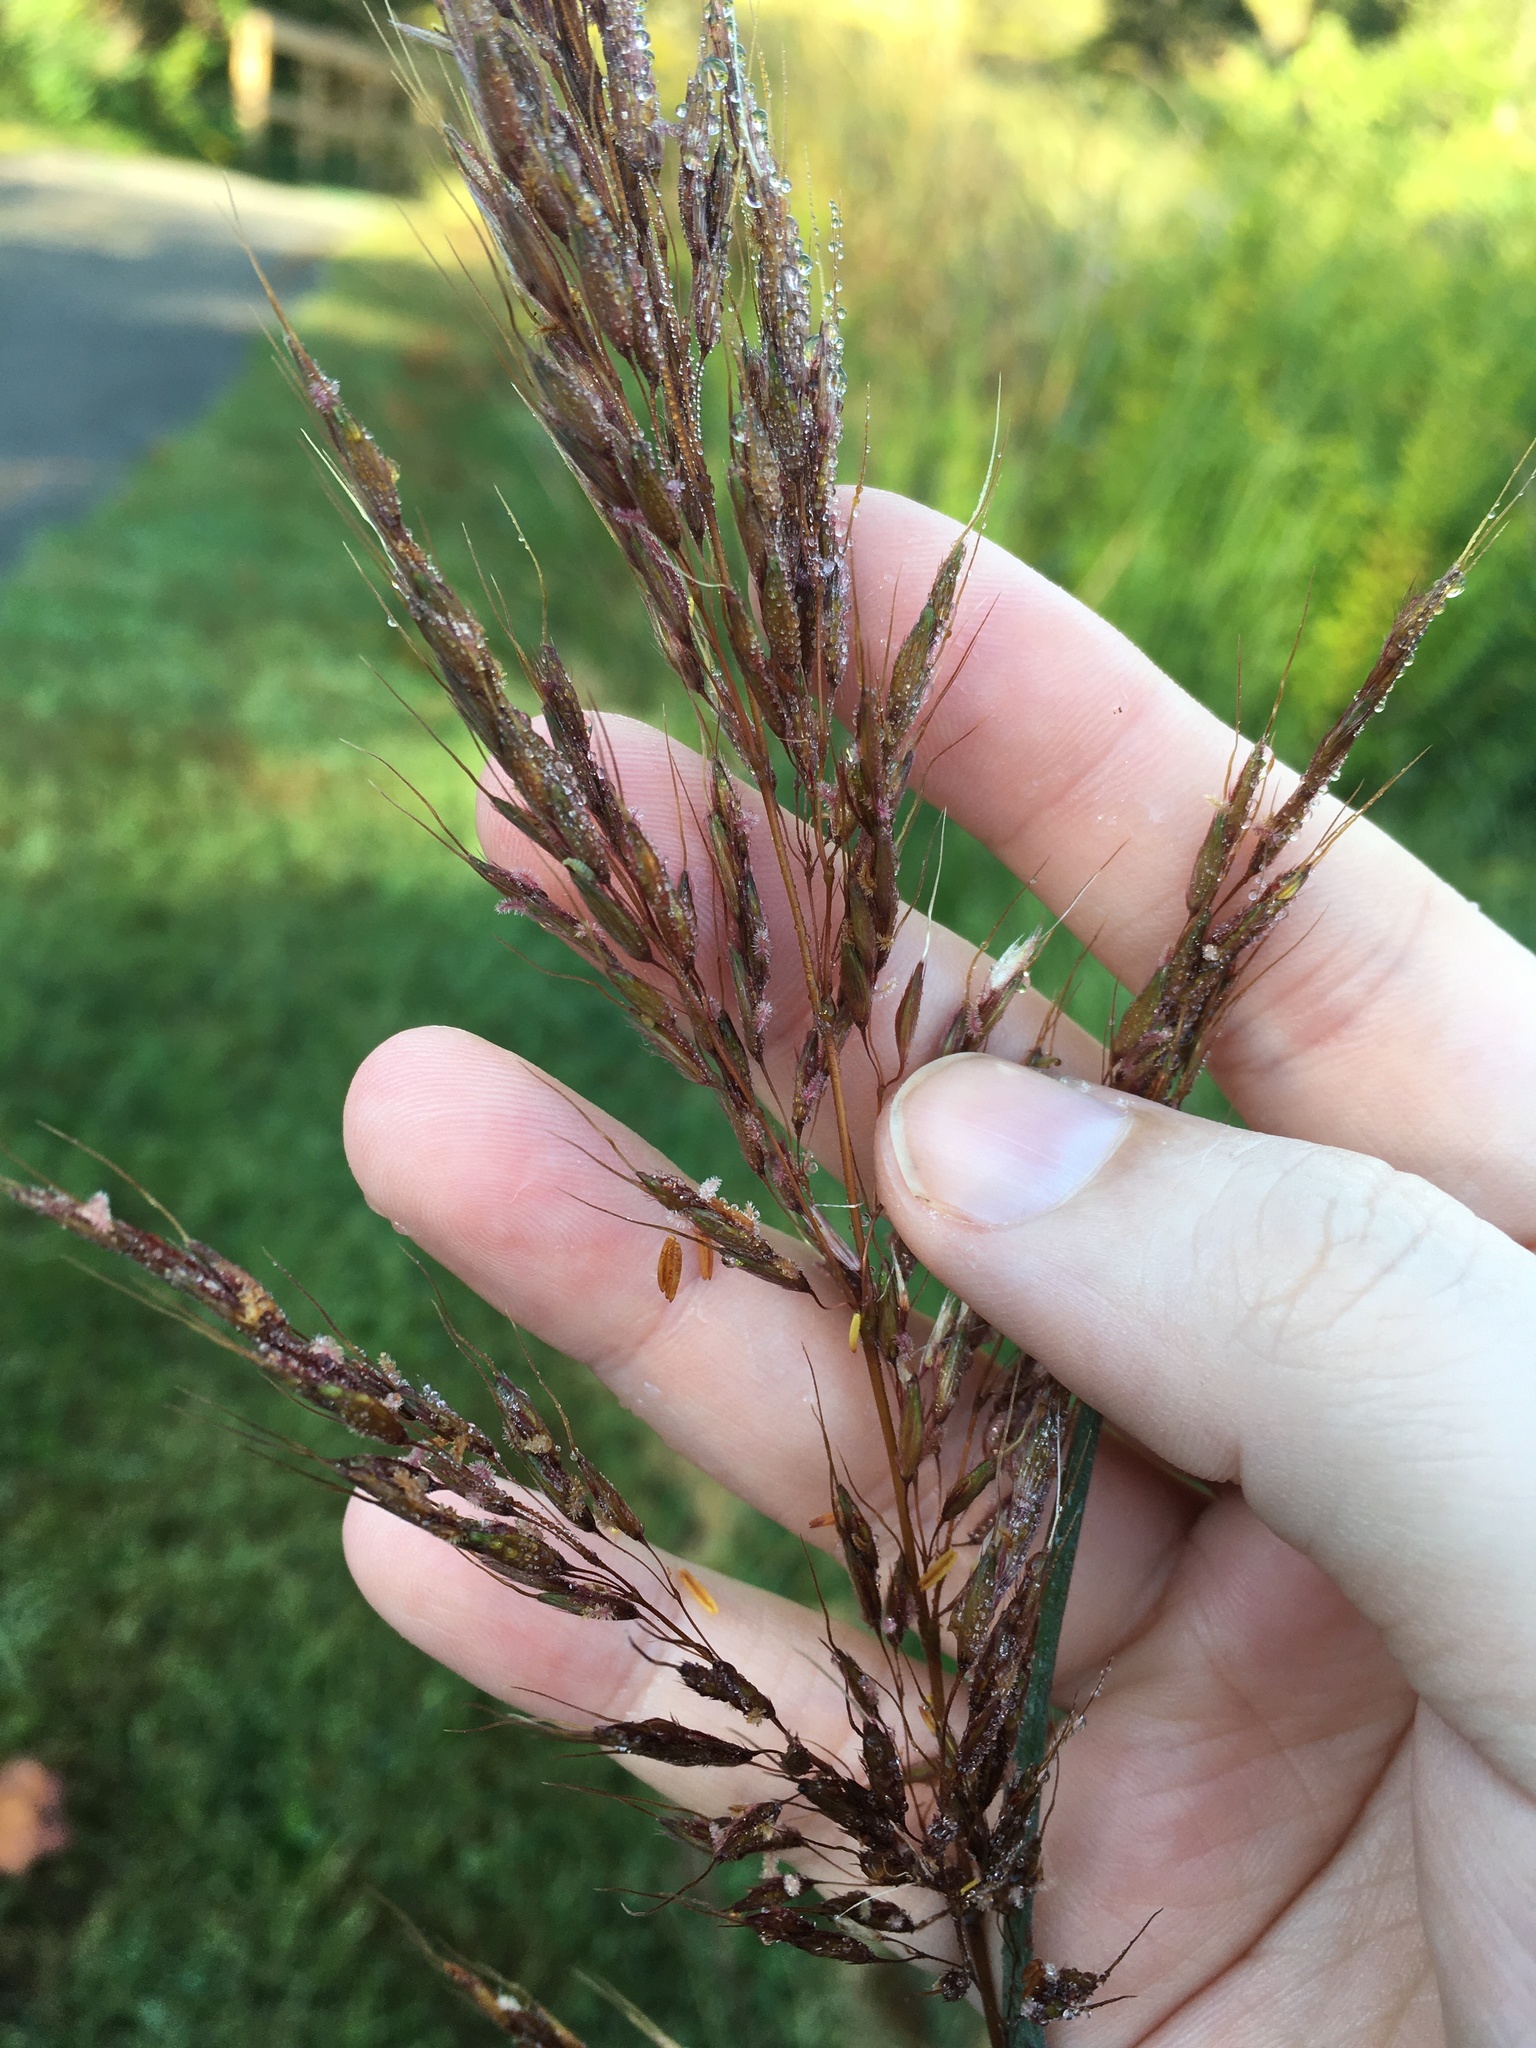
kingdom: Plantae
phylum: Tracheophyta
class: Liliopsida
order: Poales
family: Poaceae
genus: Sorghastrum
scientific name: Sorghastrum nutans
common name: Indian grass
